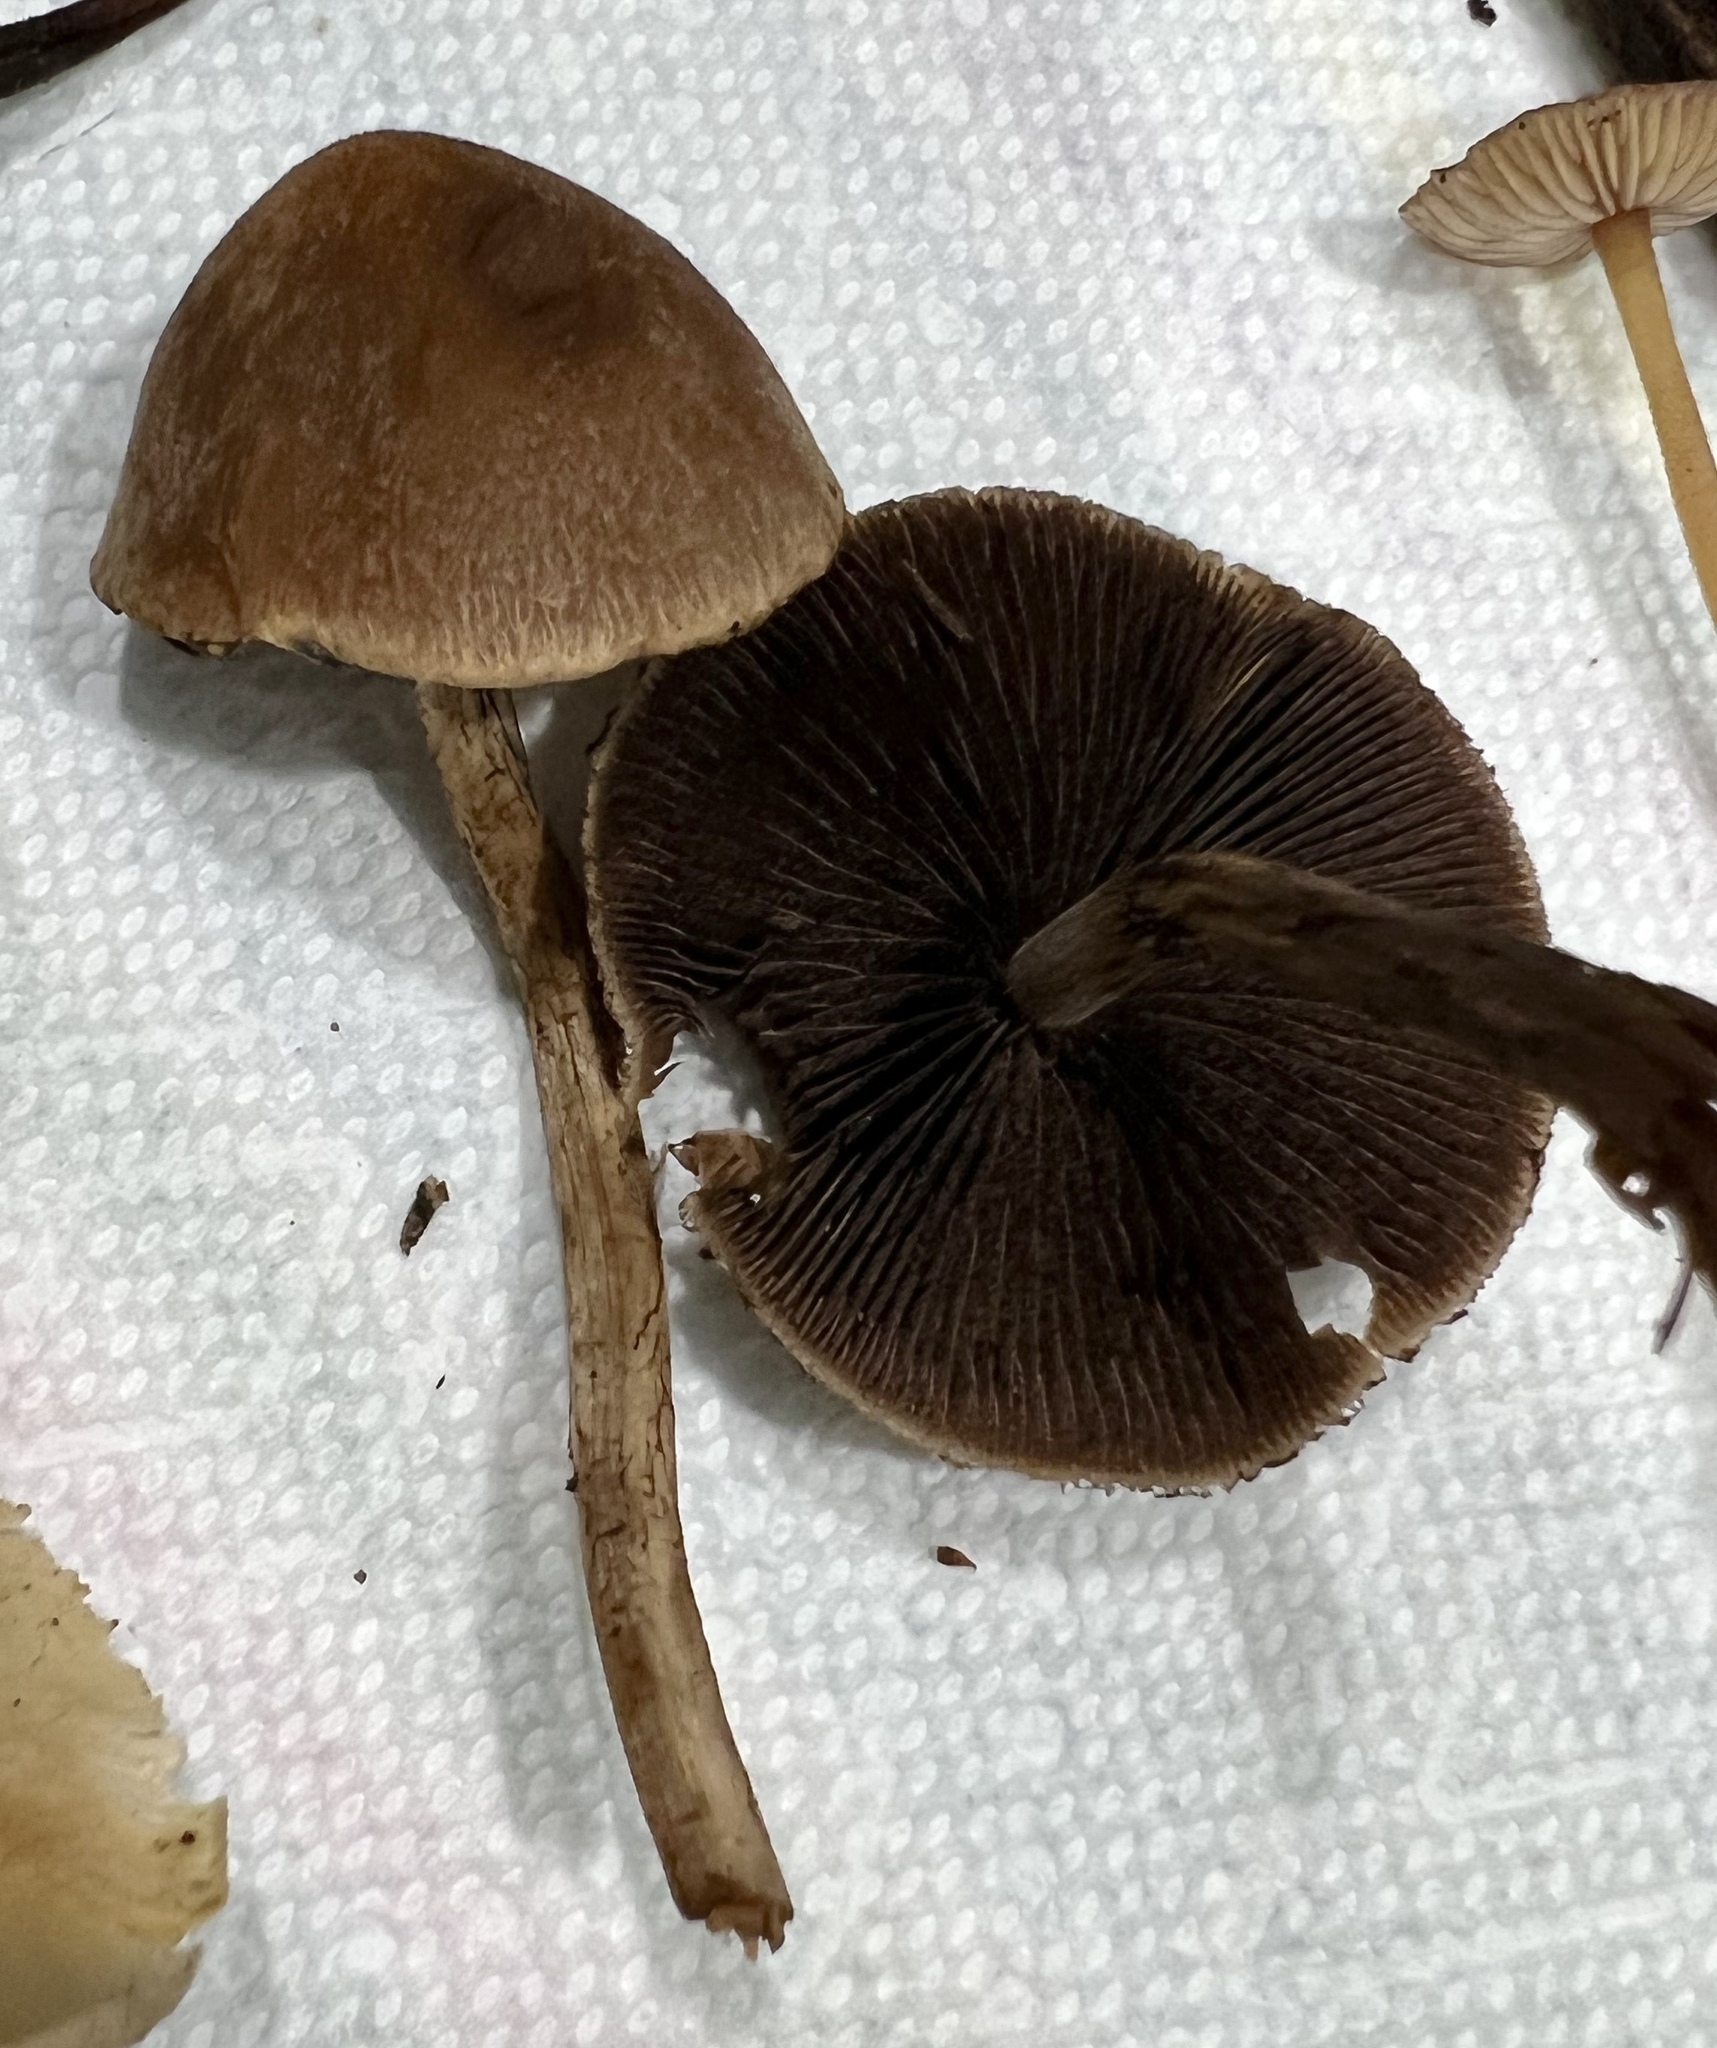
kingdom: Fungi
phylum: Basidiomycota
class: Agaricomycetes
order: Agaricales
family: Psathyrellaceae
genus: Lacrymaria
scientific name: Lacrymaria lacrymabunda
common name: Weeping widow
